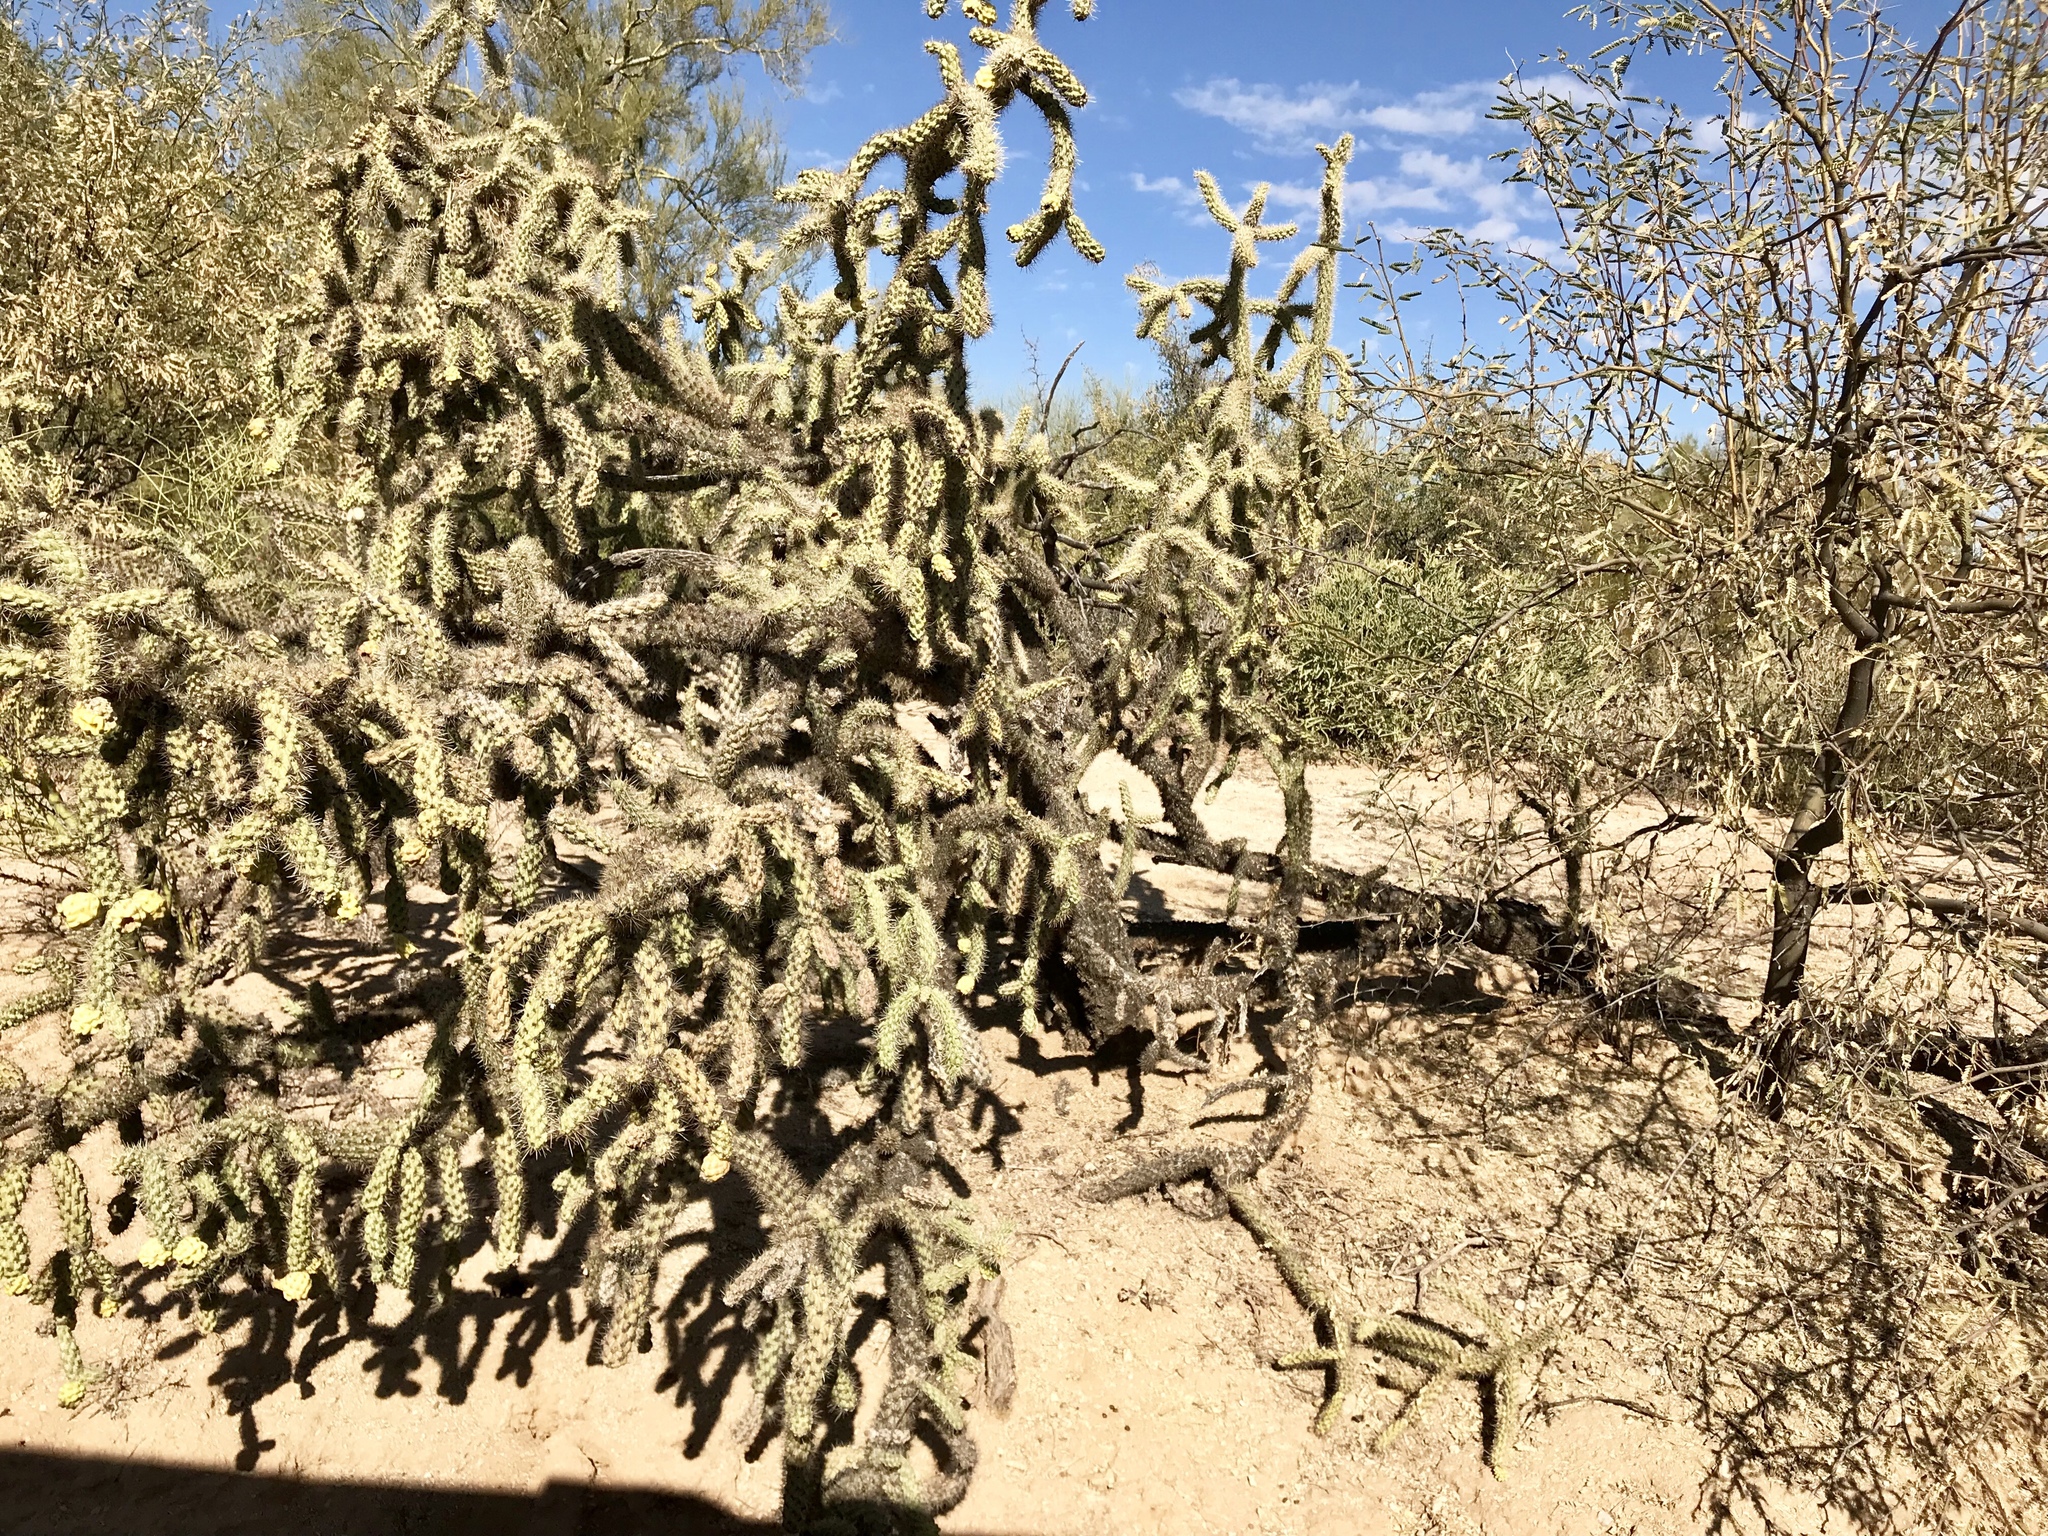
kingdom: Plantae
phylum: Tracheophyta
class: Magnoliopsida
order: Caryophyllales
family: Cactaceae
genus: Cylindropuntia
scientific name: Cylindropuntia imbricata
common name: Candelabrum cactus
